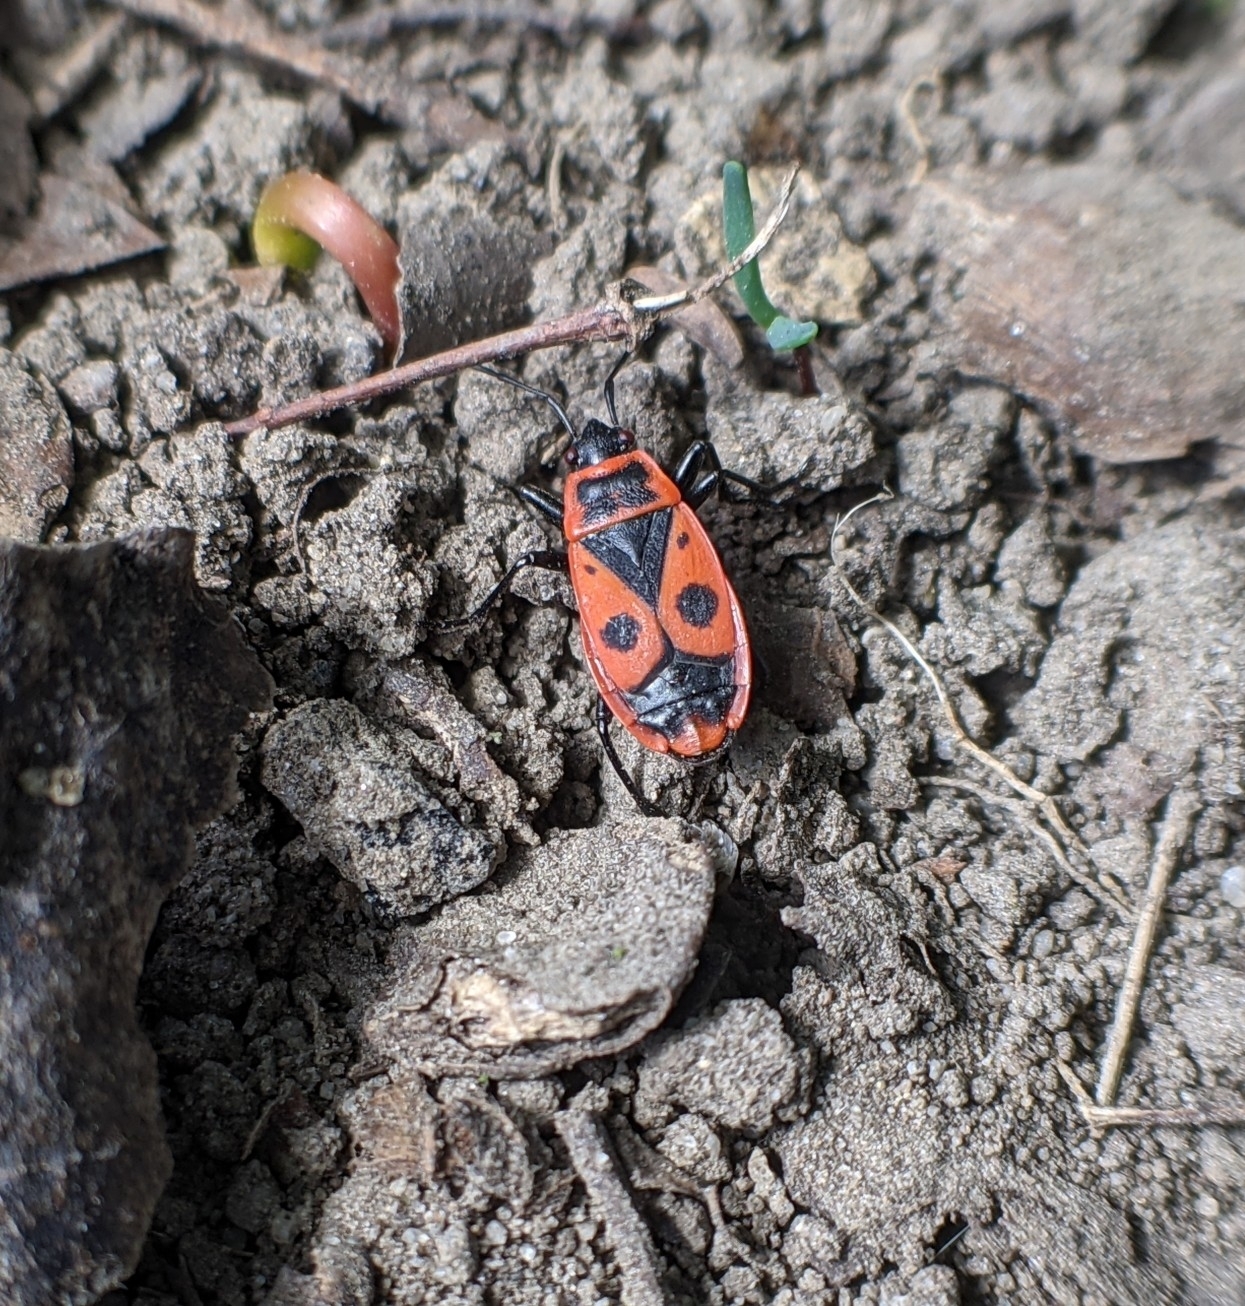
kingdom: Animalia
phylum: Arthropoda
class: Insecta
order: Hemiptera
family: Pyrrhocoridae
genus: Pyrrhocoris
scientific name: Pyrrhocoris apterus
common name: Firebug
